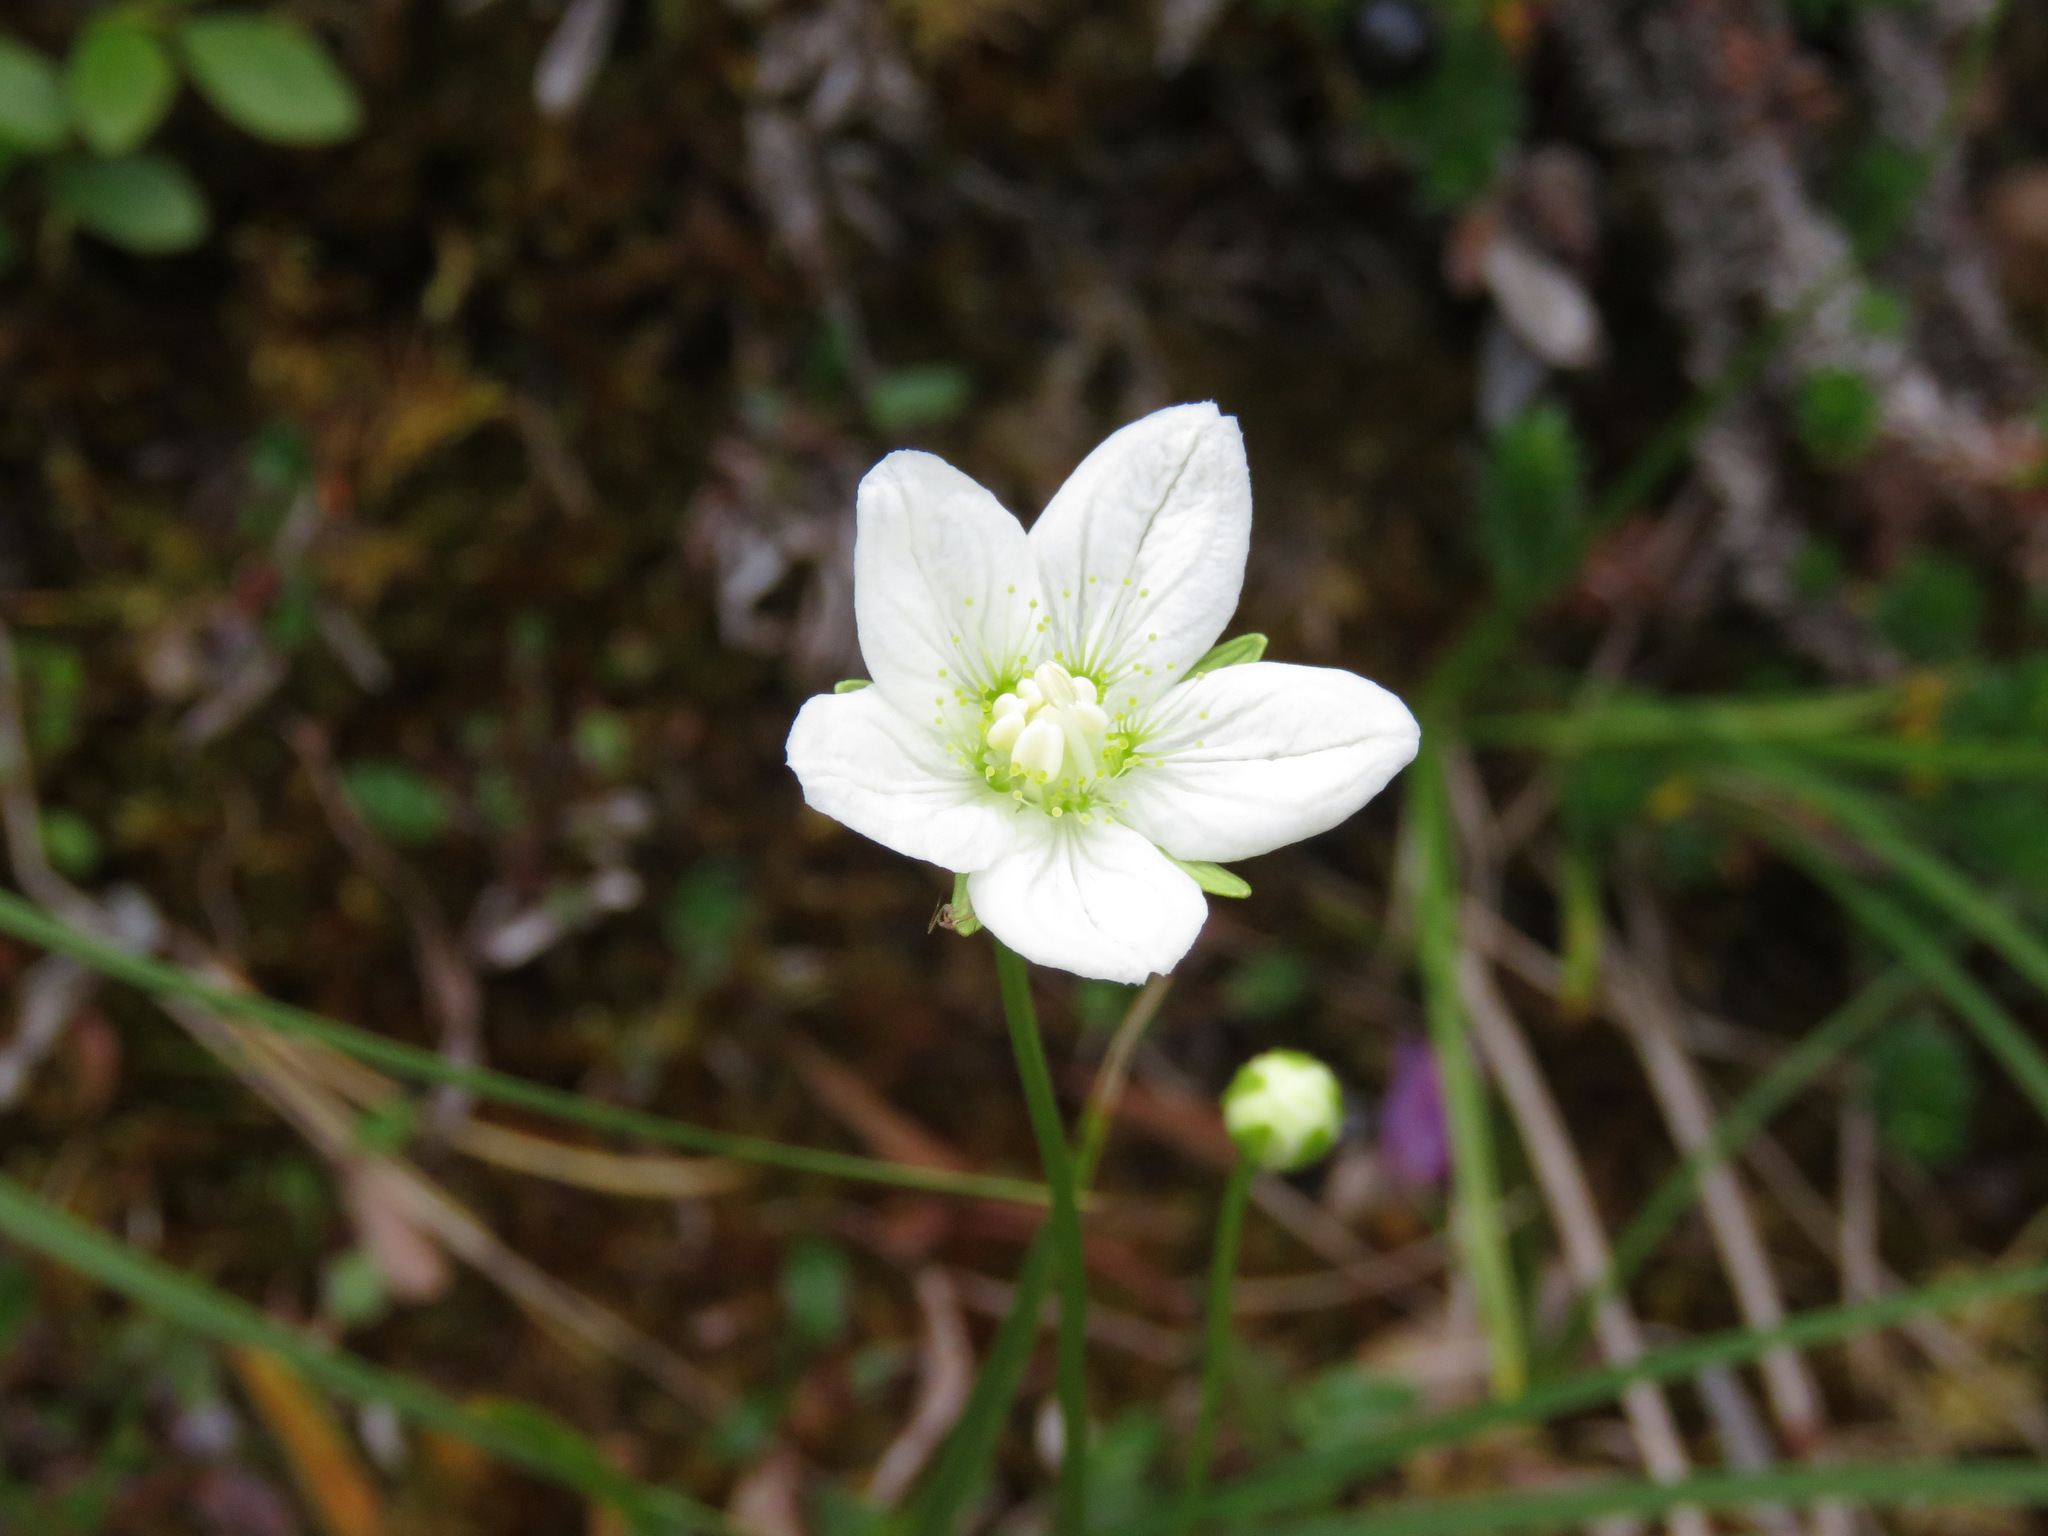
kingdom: Plantae
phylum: Tracheophyta
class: Magnoliopsida
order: Celastrales
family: Parnassiaceae
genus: Parnassia
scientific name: Parnassia palustris
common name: Grass-of-parnassus
